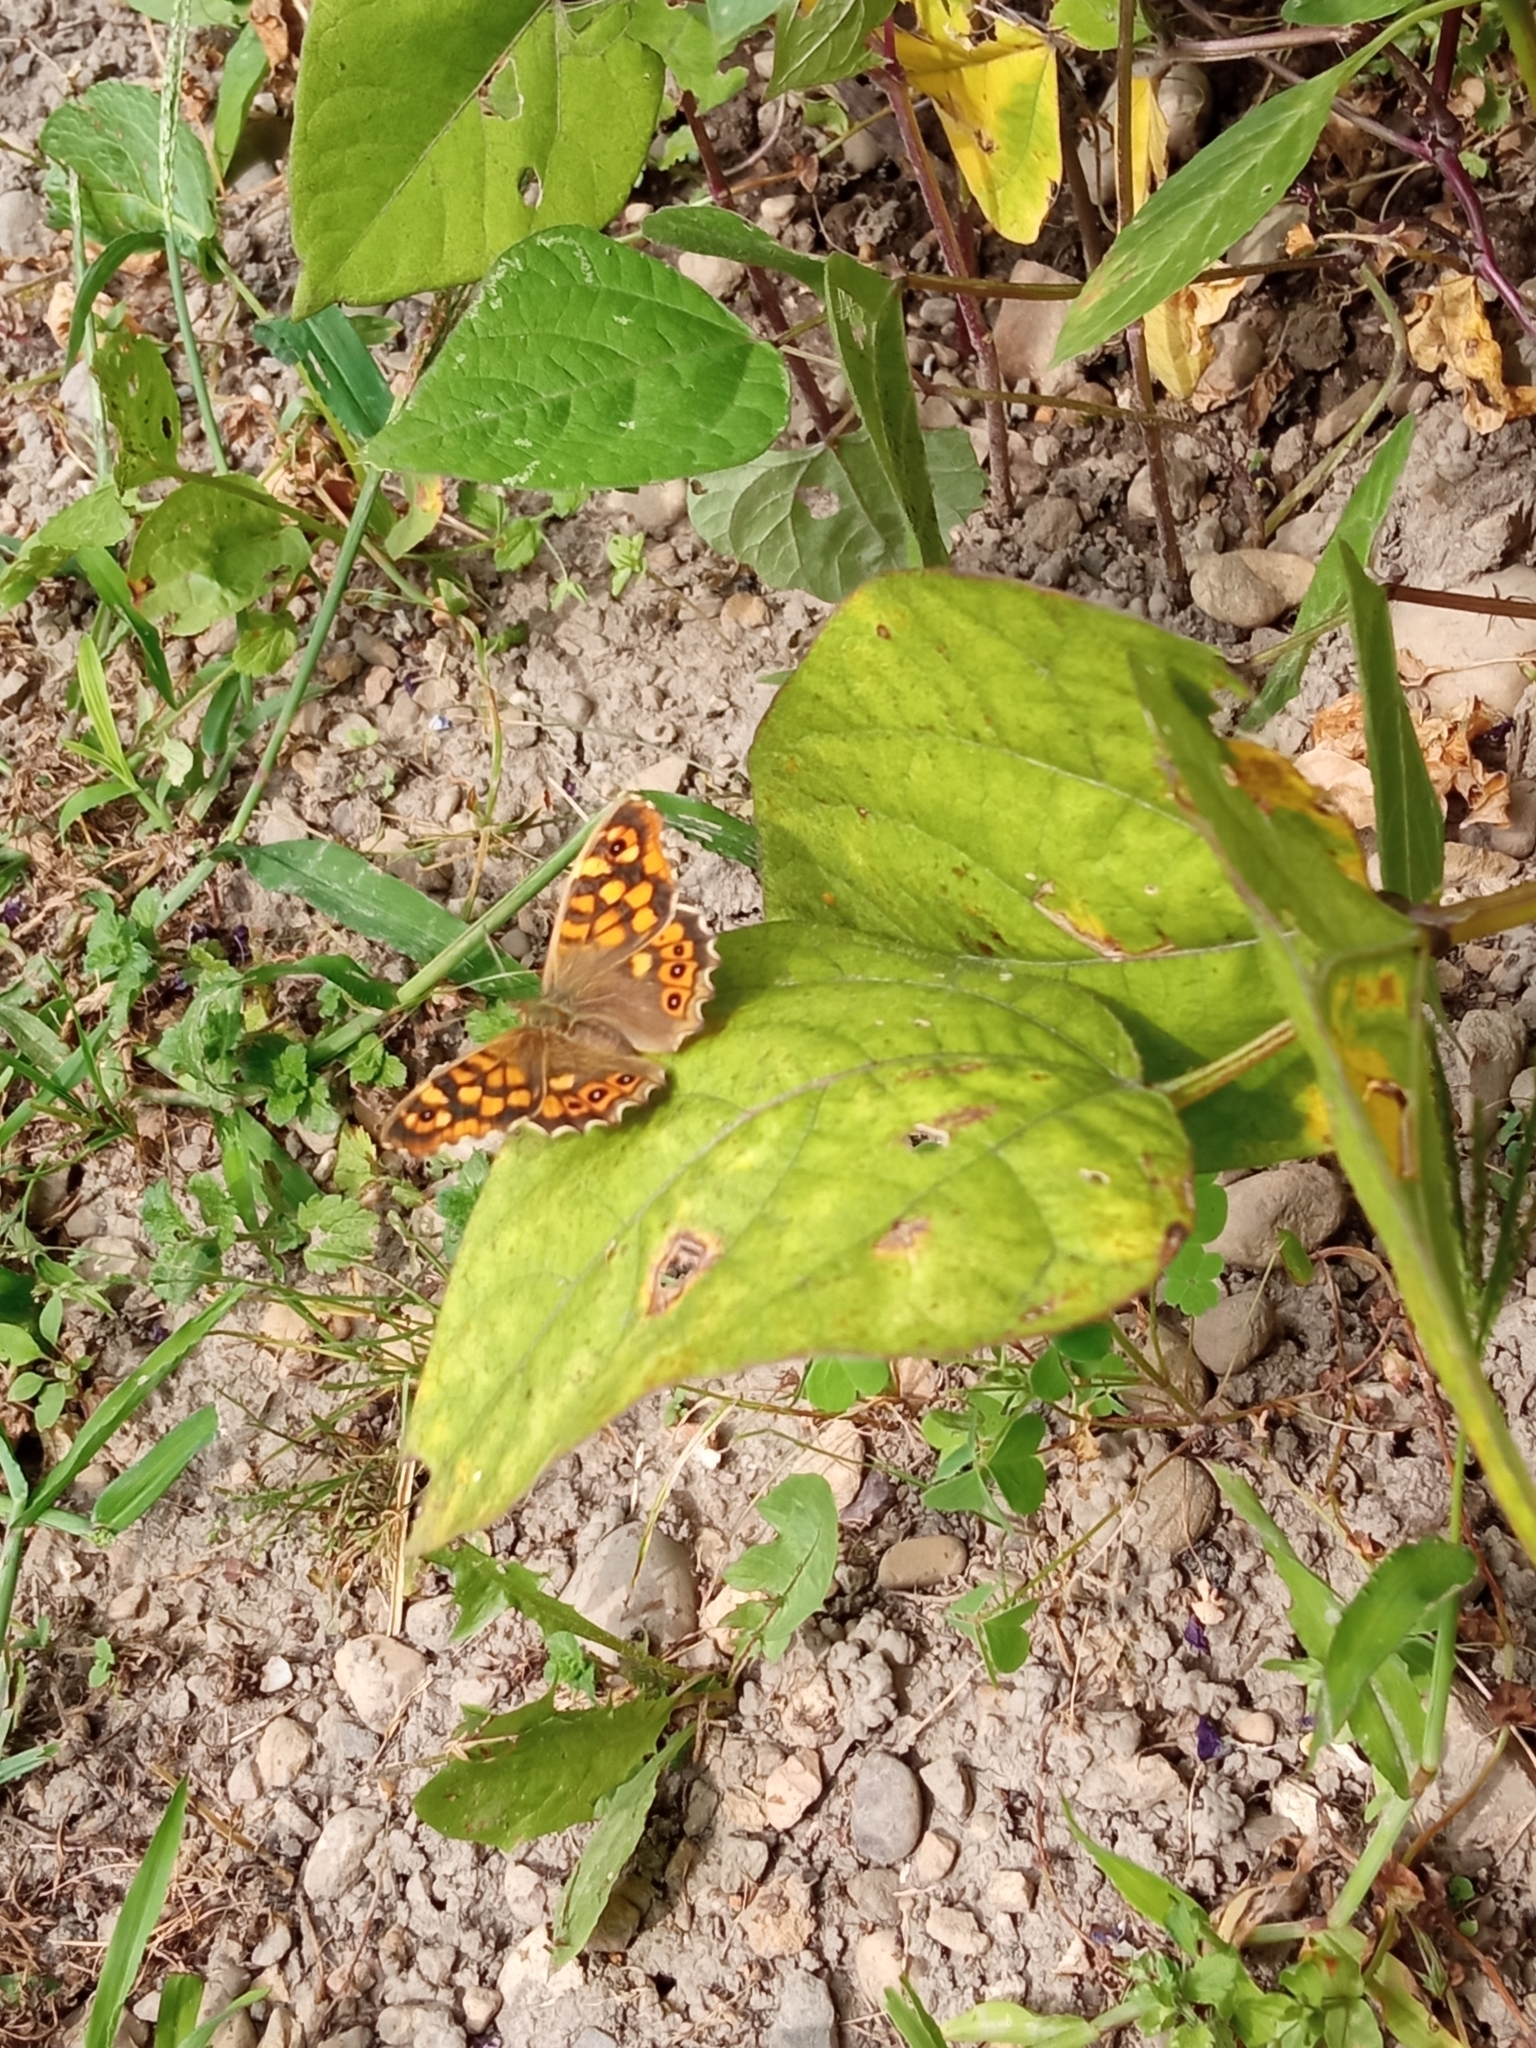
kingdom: Animalia
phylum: Arthropoda
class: Insecta
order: Lepidoptera
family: Nymphalidae
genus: Pararge
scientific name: Pararge aegeria
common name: Speckled wood
